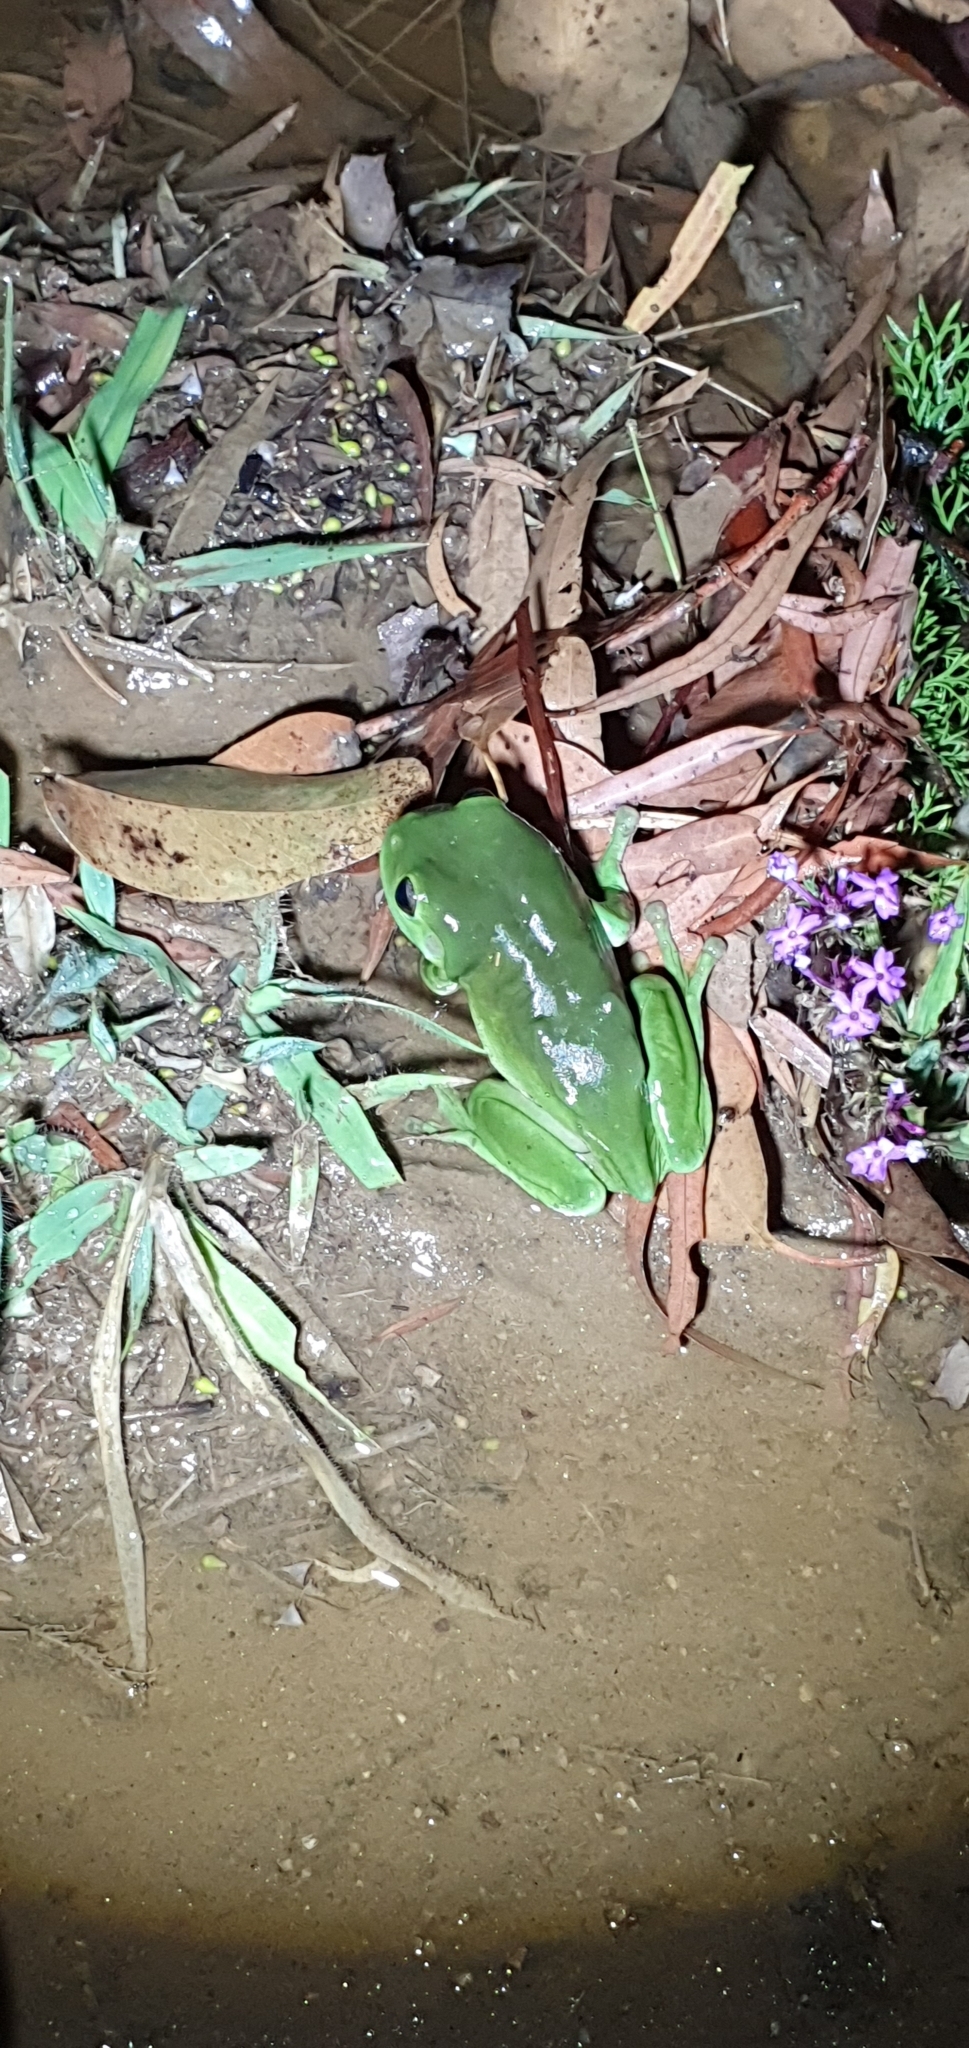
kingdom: Animalia
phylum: Chordata
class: Amphibia
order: Anura
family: Pelodryadidae
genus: Ranoidea
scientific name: Ranoidea caerulea
